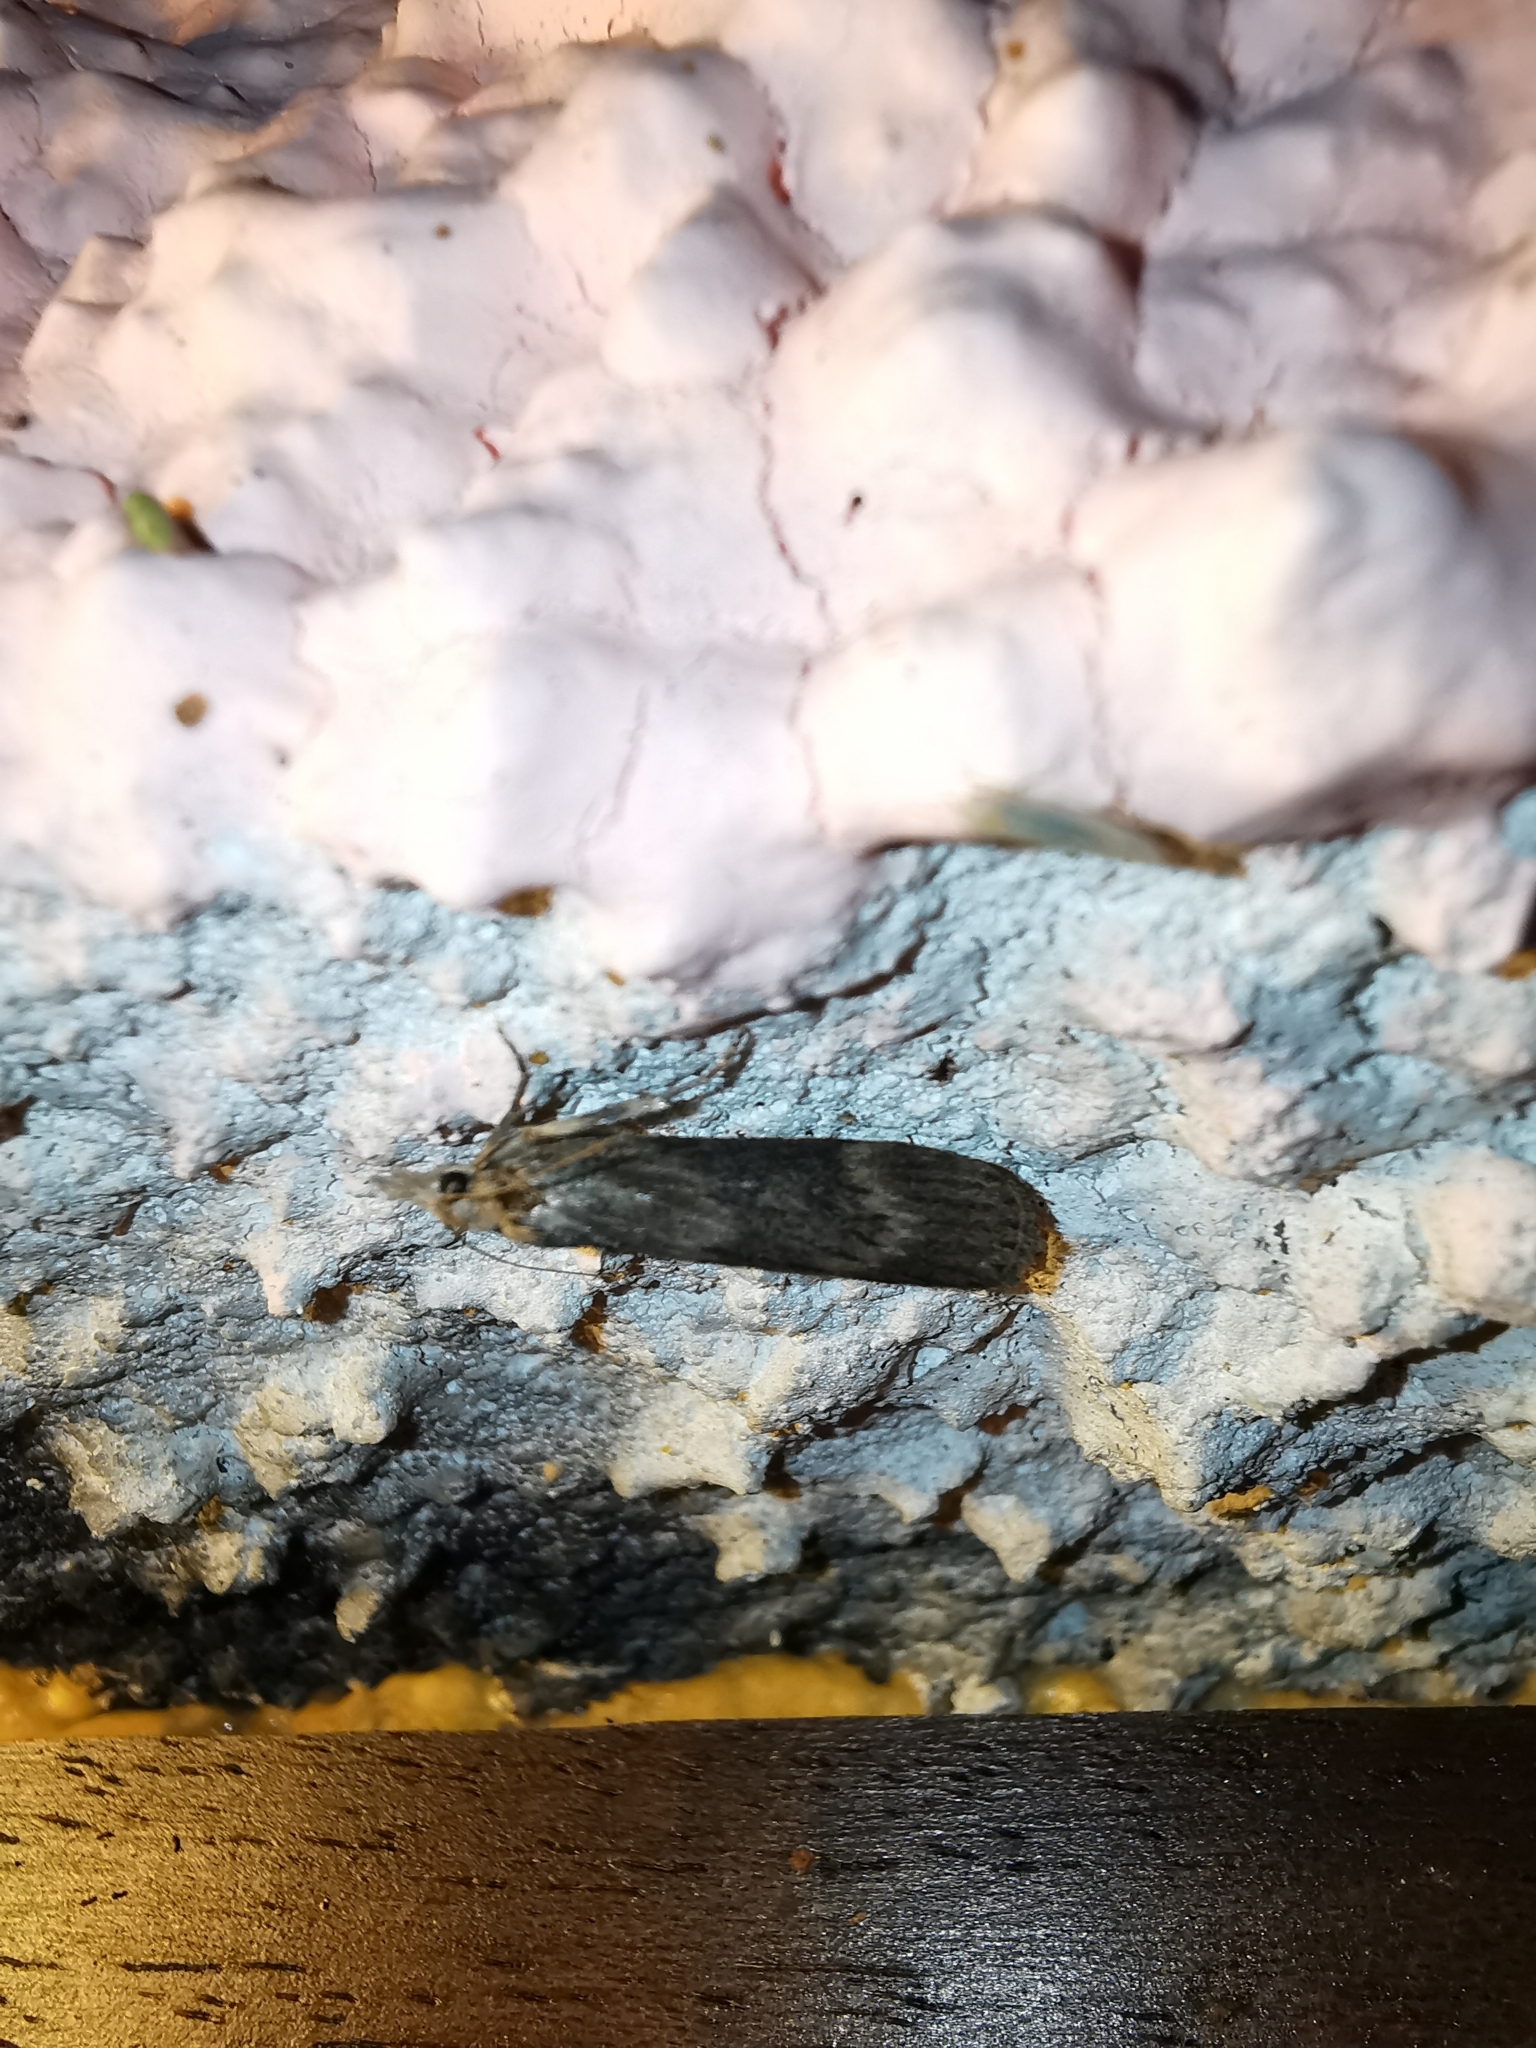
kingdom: Animalia
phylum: Arthropoda
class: Insecta
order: Lepidoptera
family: Pyralidae
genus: Lamoria
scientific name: Lamoria anella
